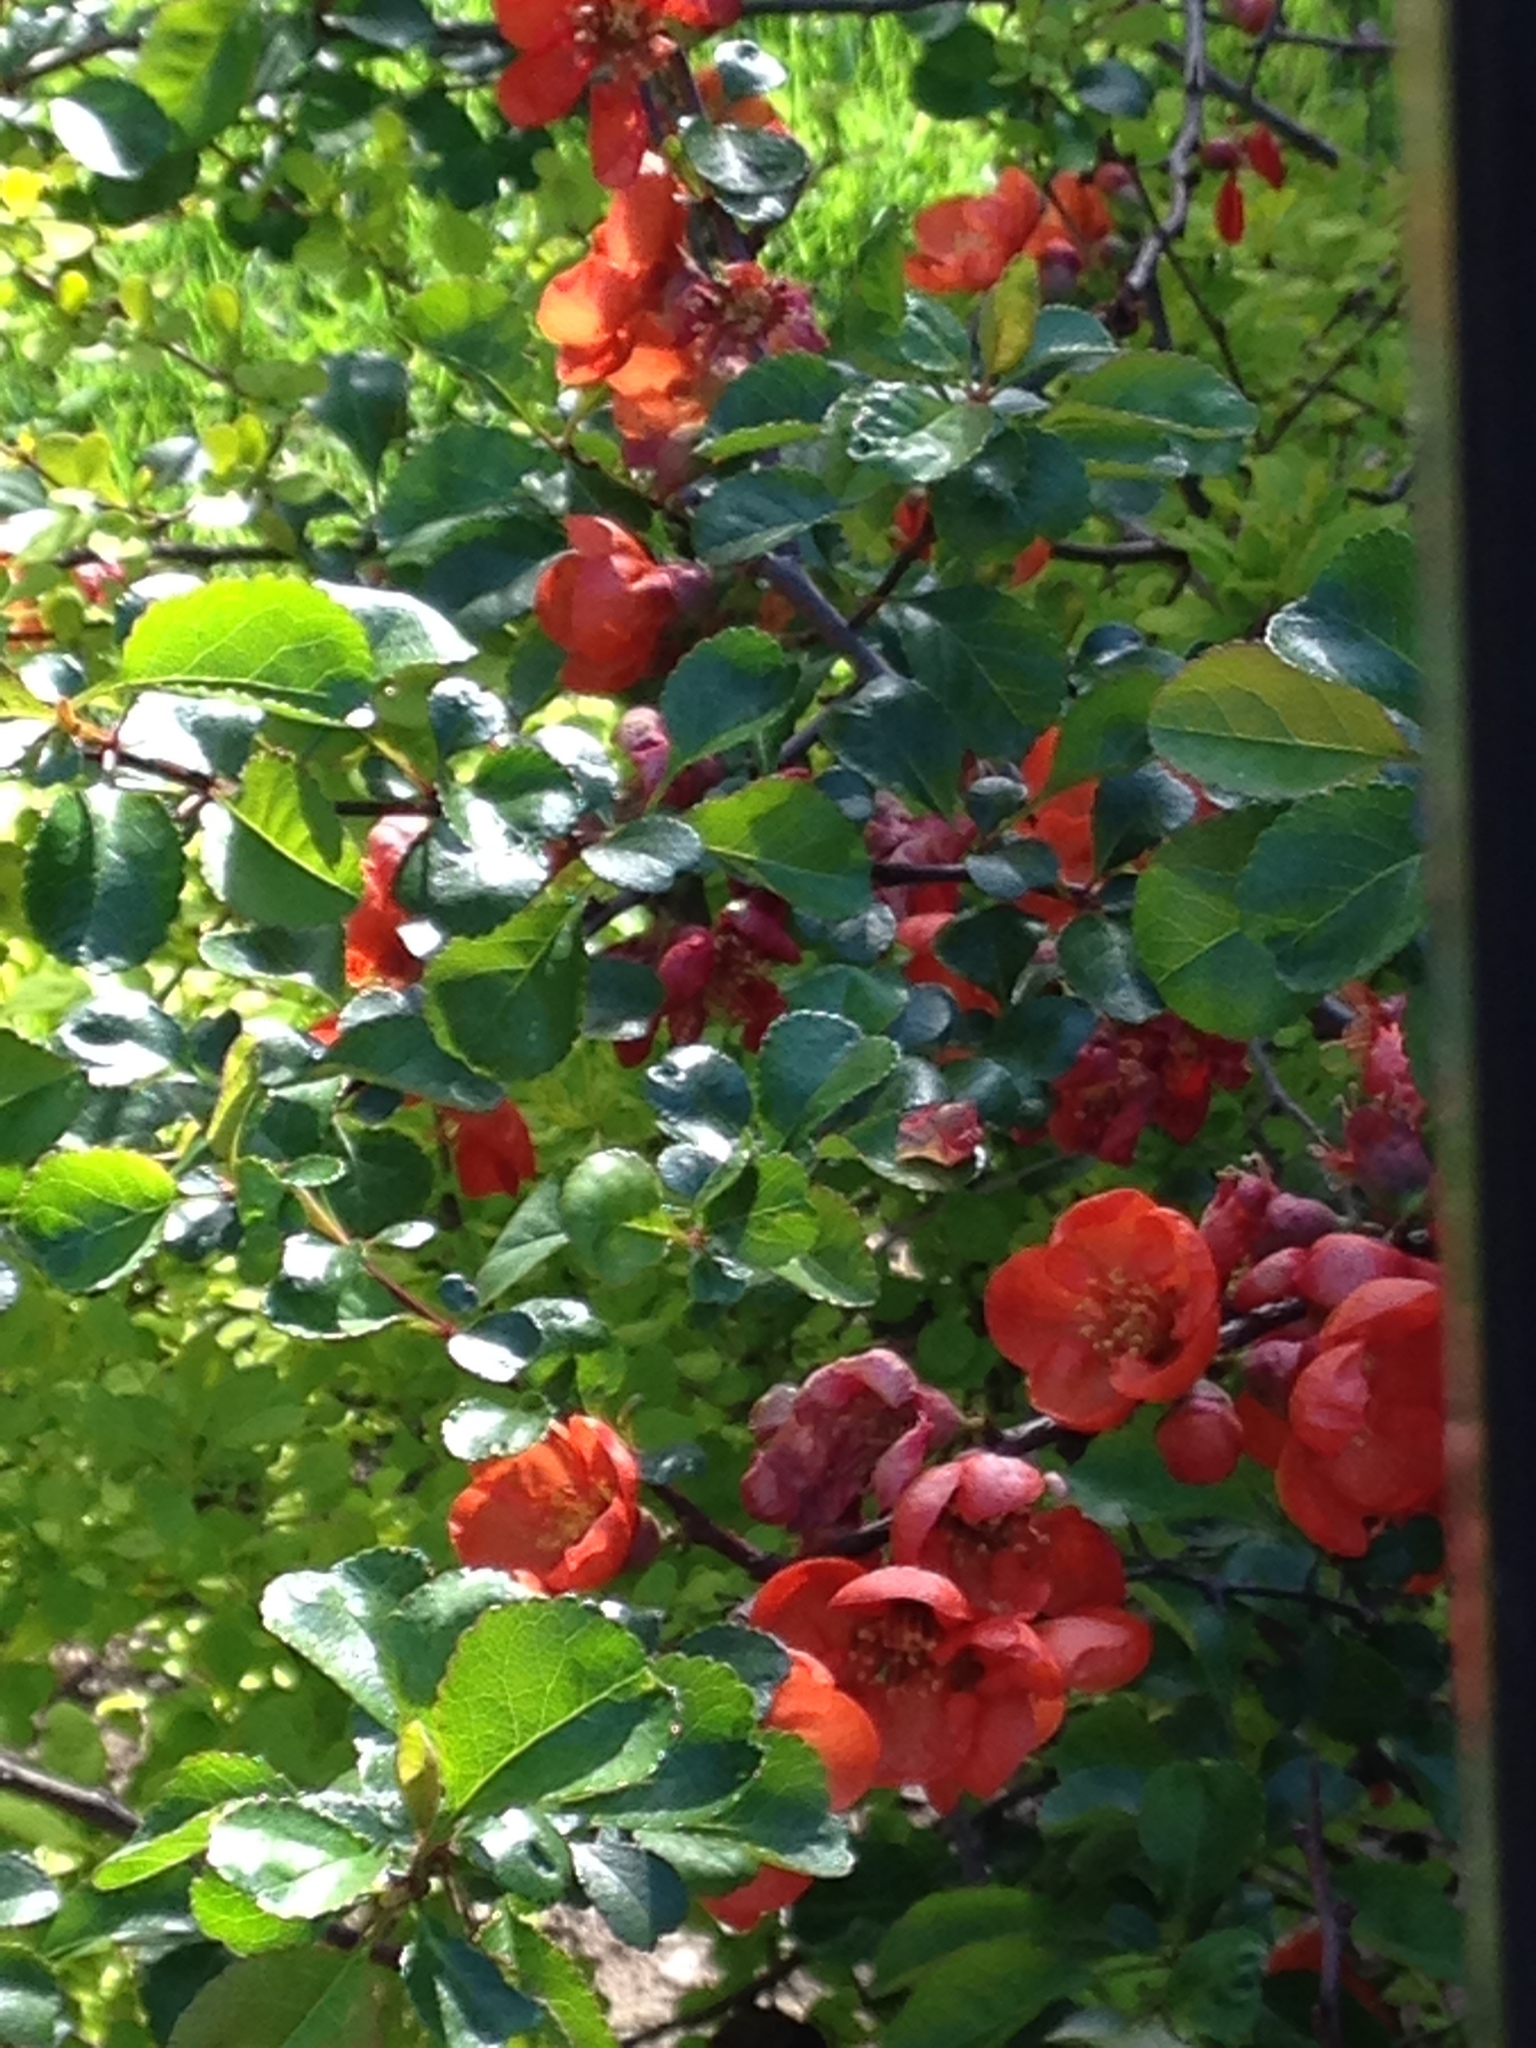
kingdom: Plantae
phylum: Tracheophyta
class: Magnoliopsida
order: Rosales
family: Rosaceae
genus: Chaenomeles
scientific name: Chaenomeles japonica
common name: Japanese quince
